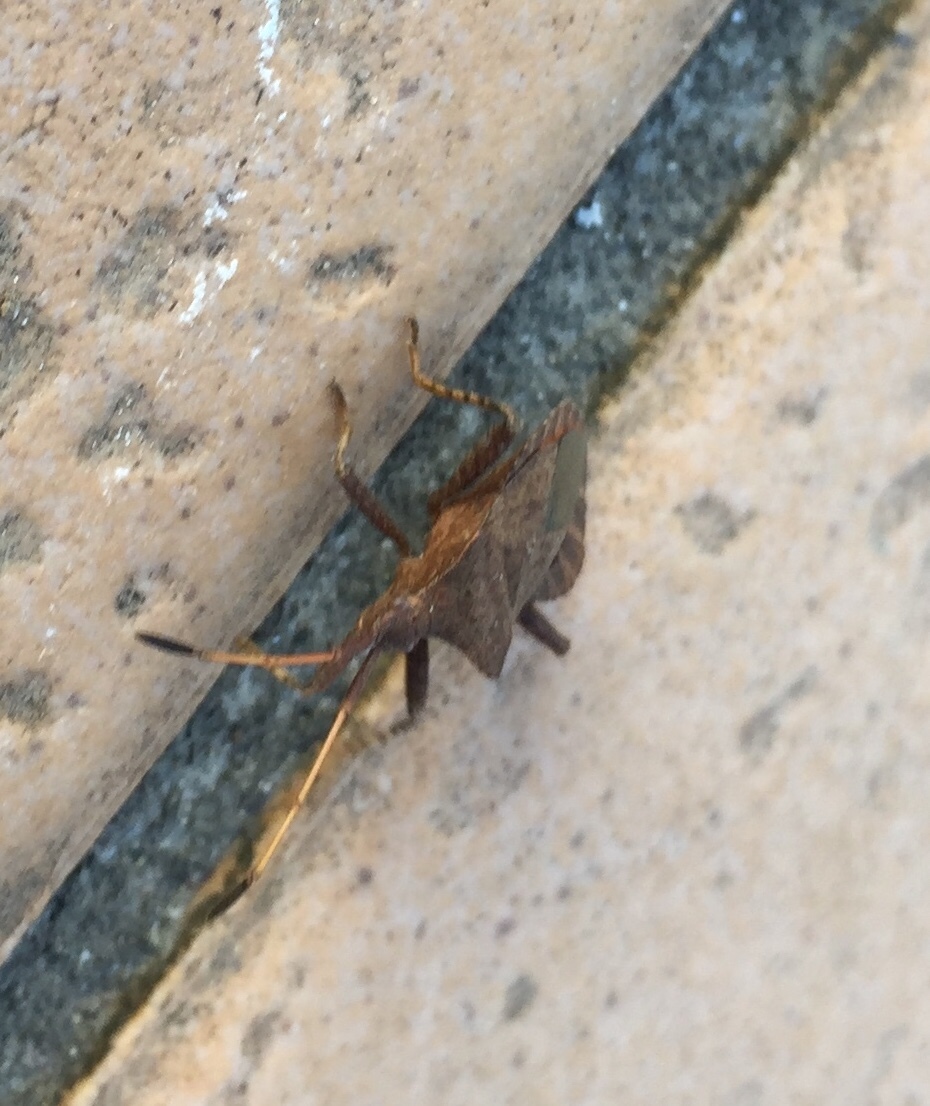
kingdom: Animalia
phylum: Arthropoda
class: Insecta
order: Hemiptera
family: Coreidae
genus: Coreus
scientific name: Coreus marginatus
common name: Dock bug
